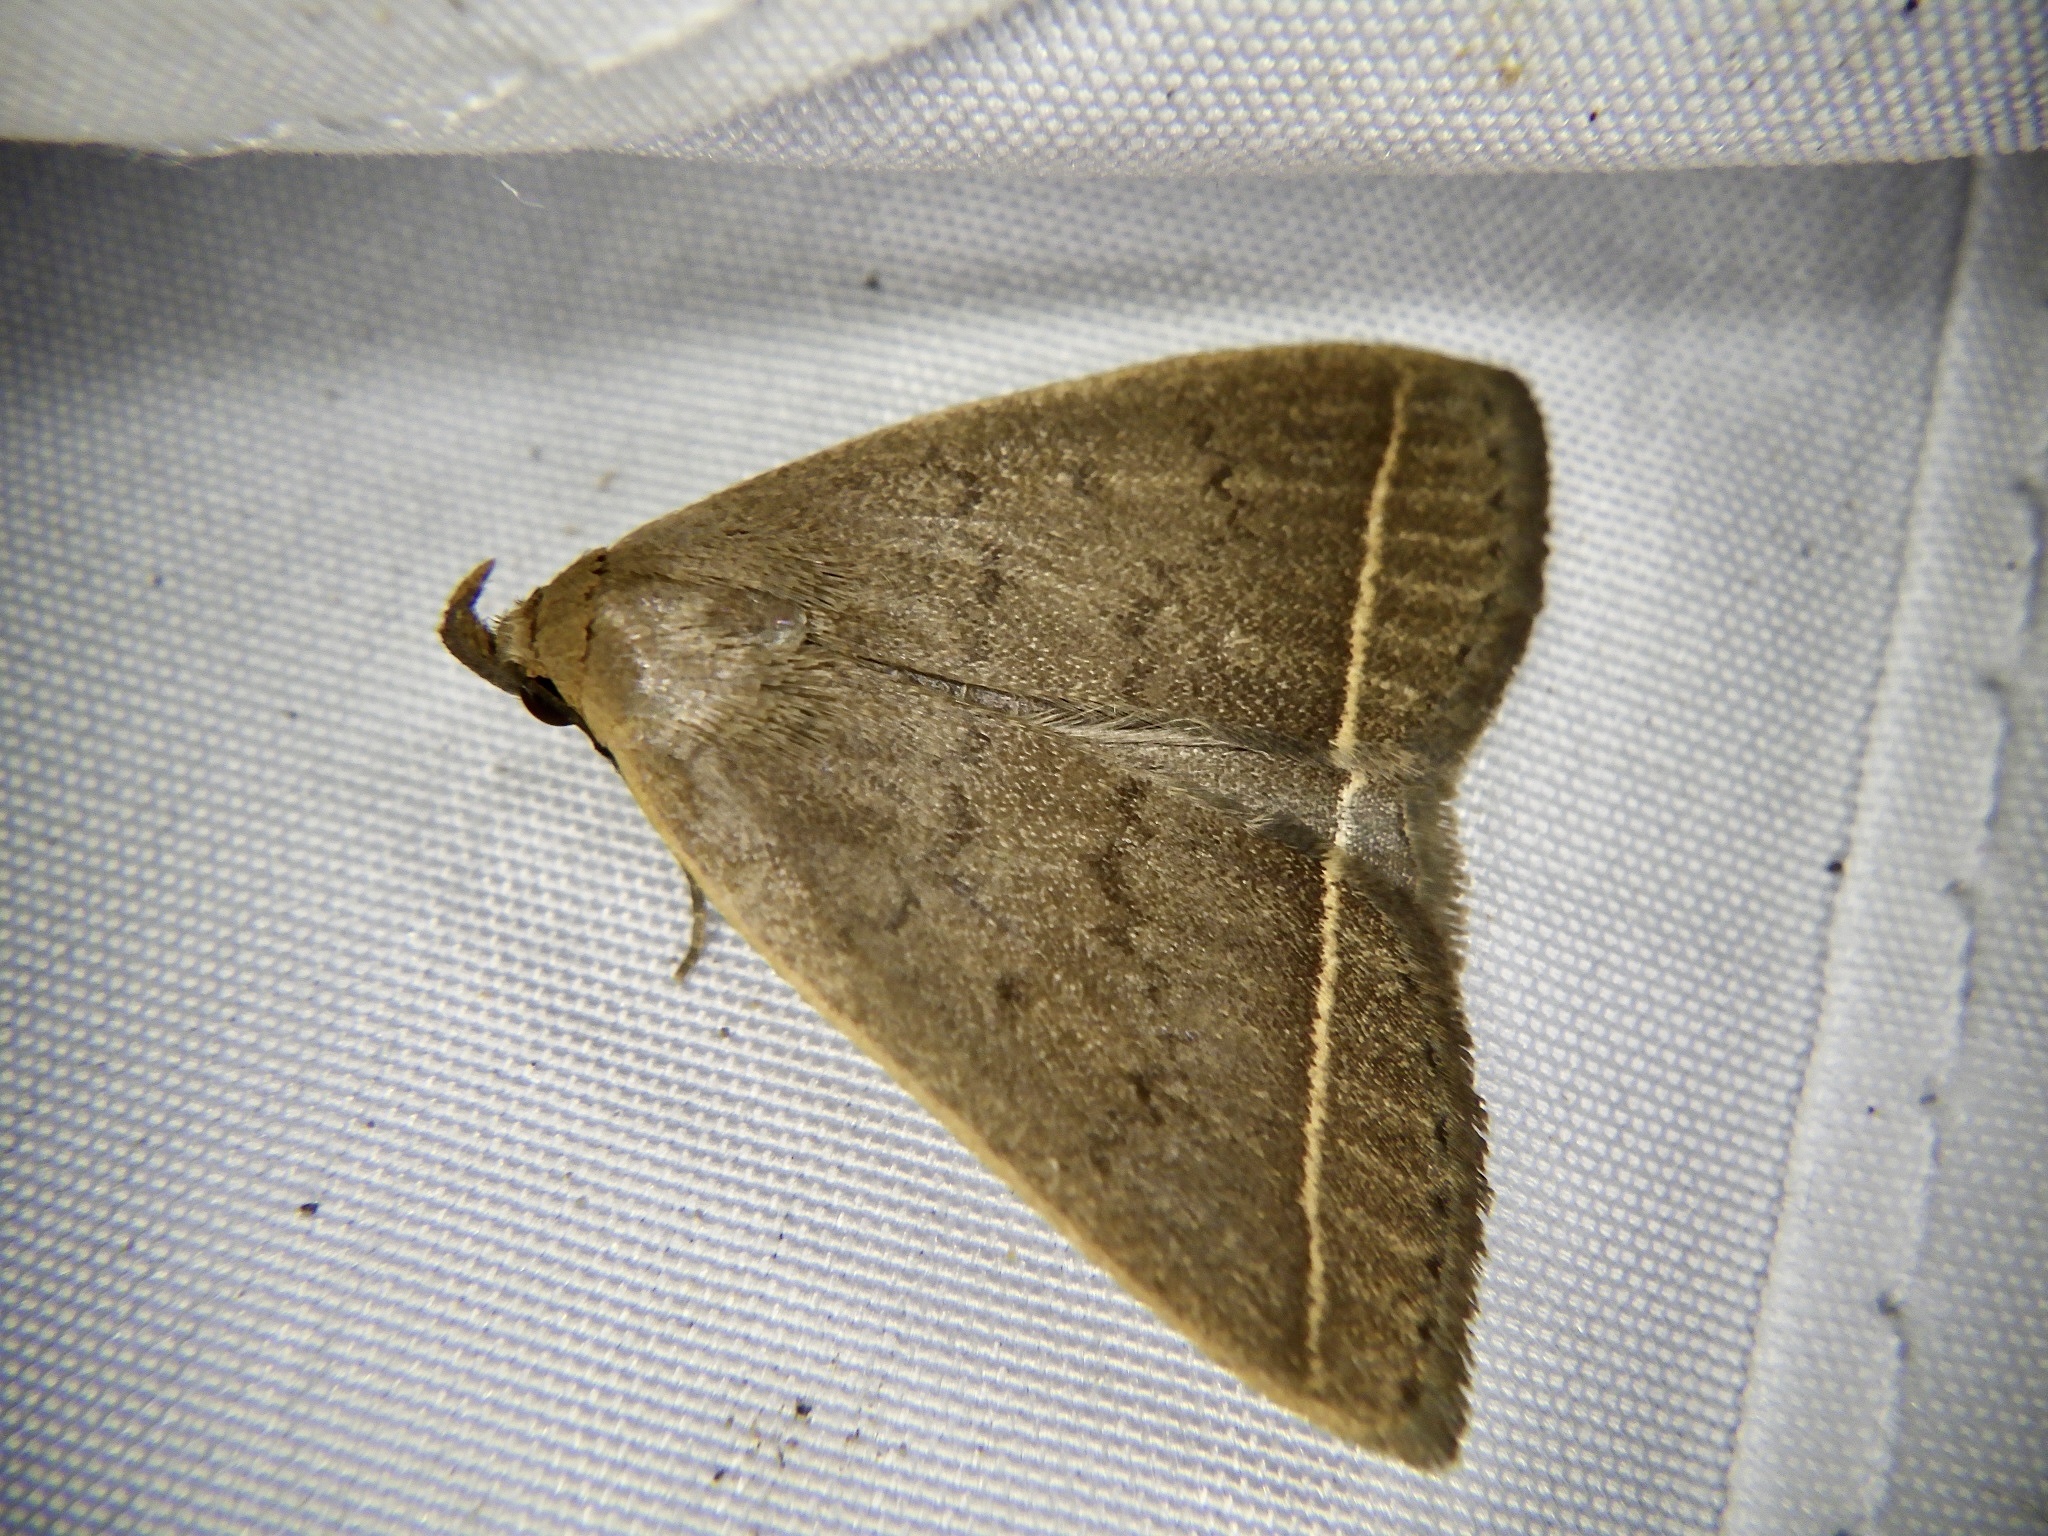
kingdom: Animalia
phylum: Arthropoda
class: Insecta
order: Lepidoptera
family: Erebidae
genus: Simplicia
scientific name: Simplicia niphona
